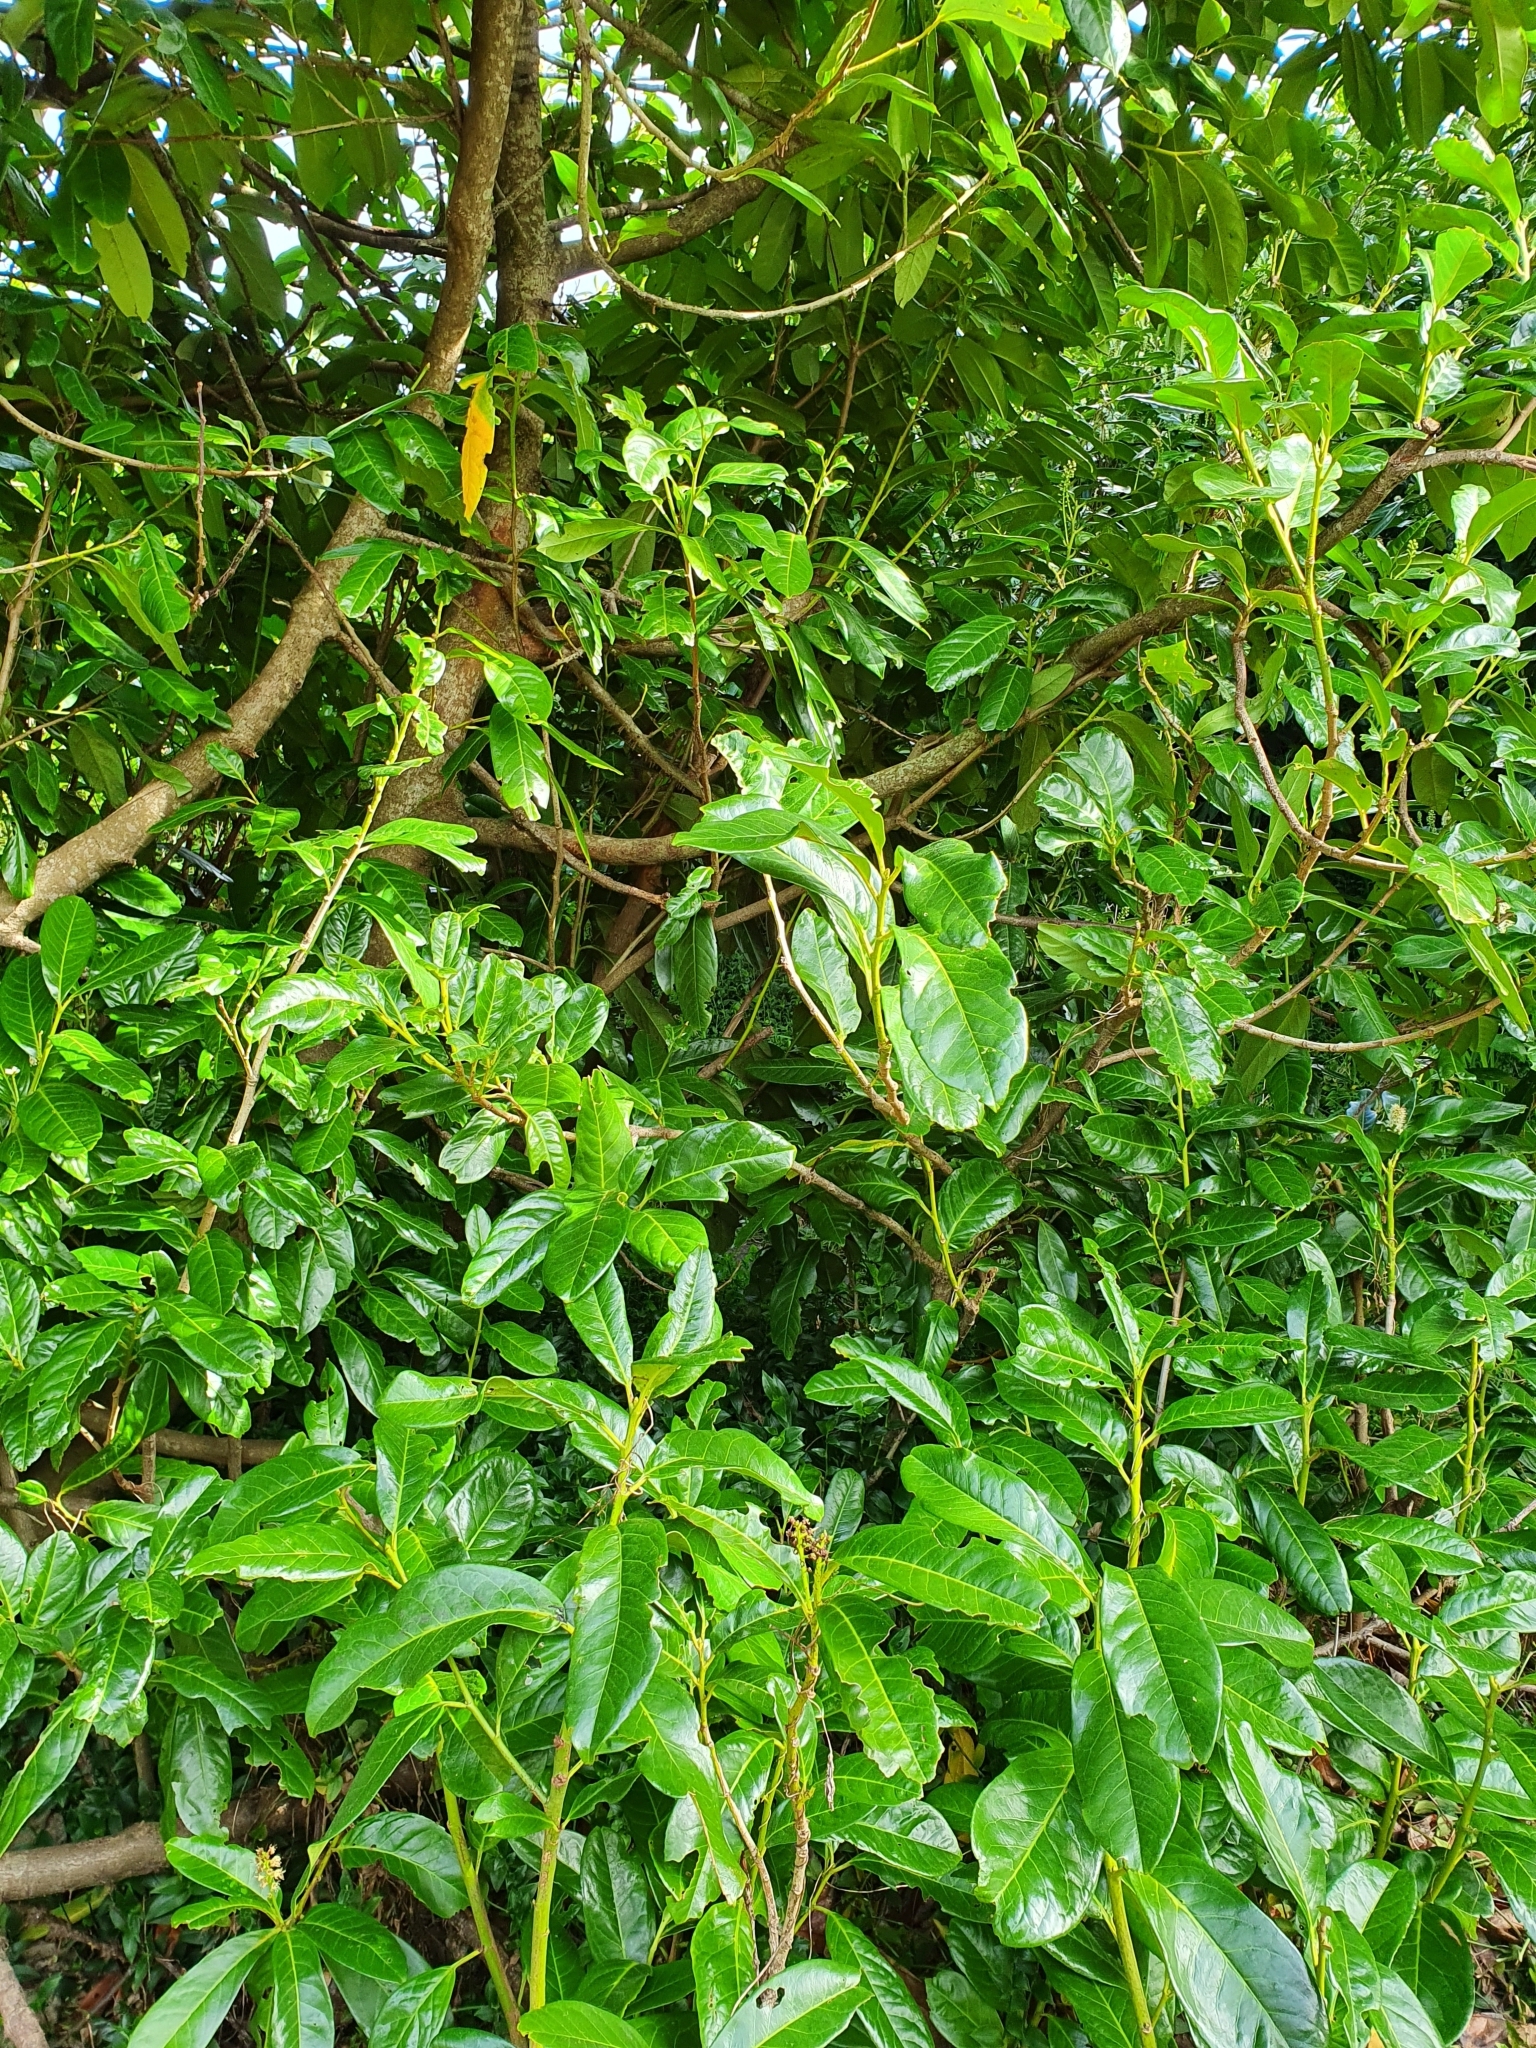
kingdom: Plantae
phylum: Tracheophyta
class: Magnoliopsida
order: Rosales
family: Rosaceae
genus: Prunus
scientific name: Prunus laurocerasus
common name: Cherry laurel
